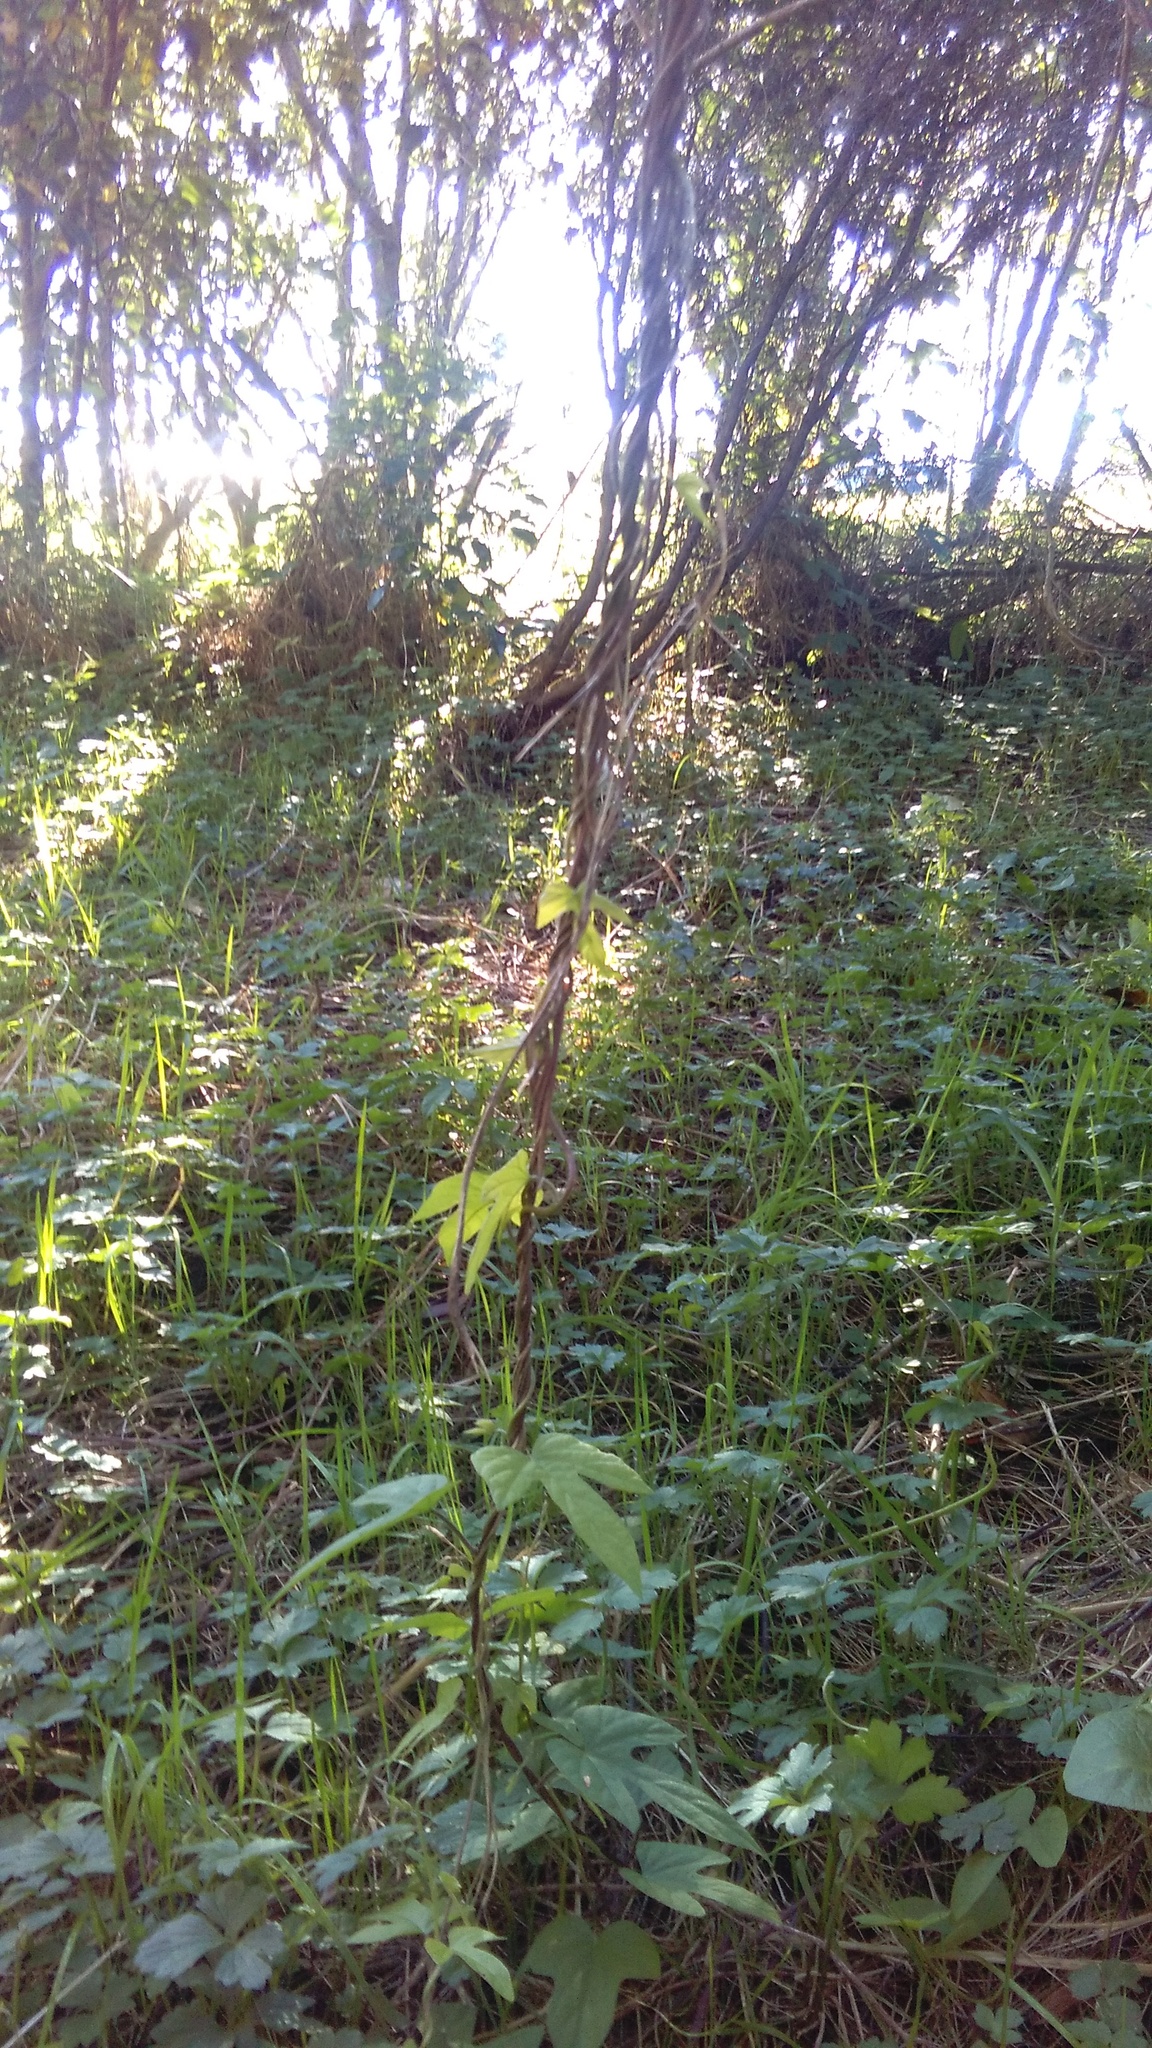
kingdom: Plantae
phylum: Tracheophyta
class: Magnoliopsida
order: Solanales
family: Convolvulaceae
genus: Ipomoea
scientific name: Ipomoea indica
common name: Blue dawnflower
